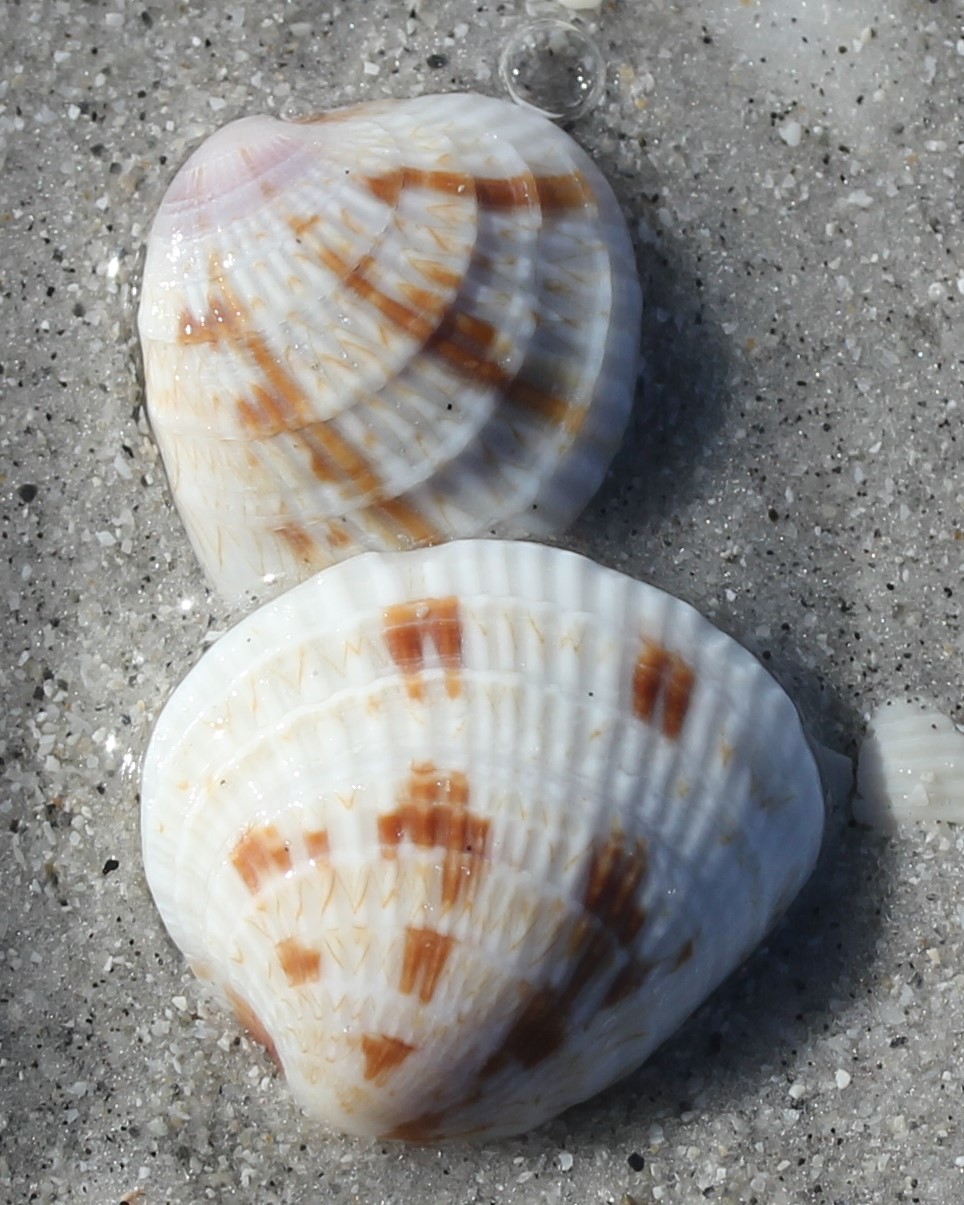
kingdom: Animalia
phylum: Mollusca
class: Bivalvia
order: Venerida
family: Veneridae
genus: Chione
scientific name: Chione elevata
